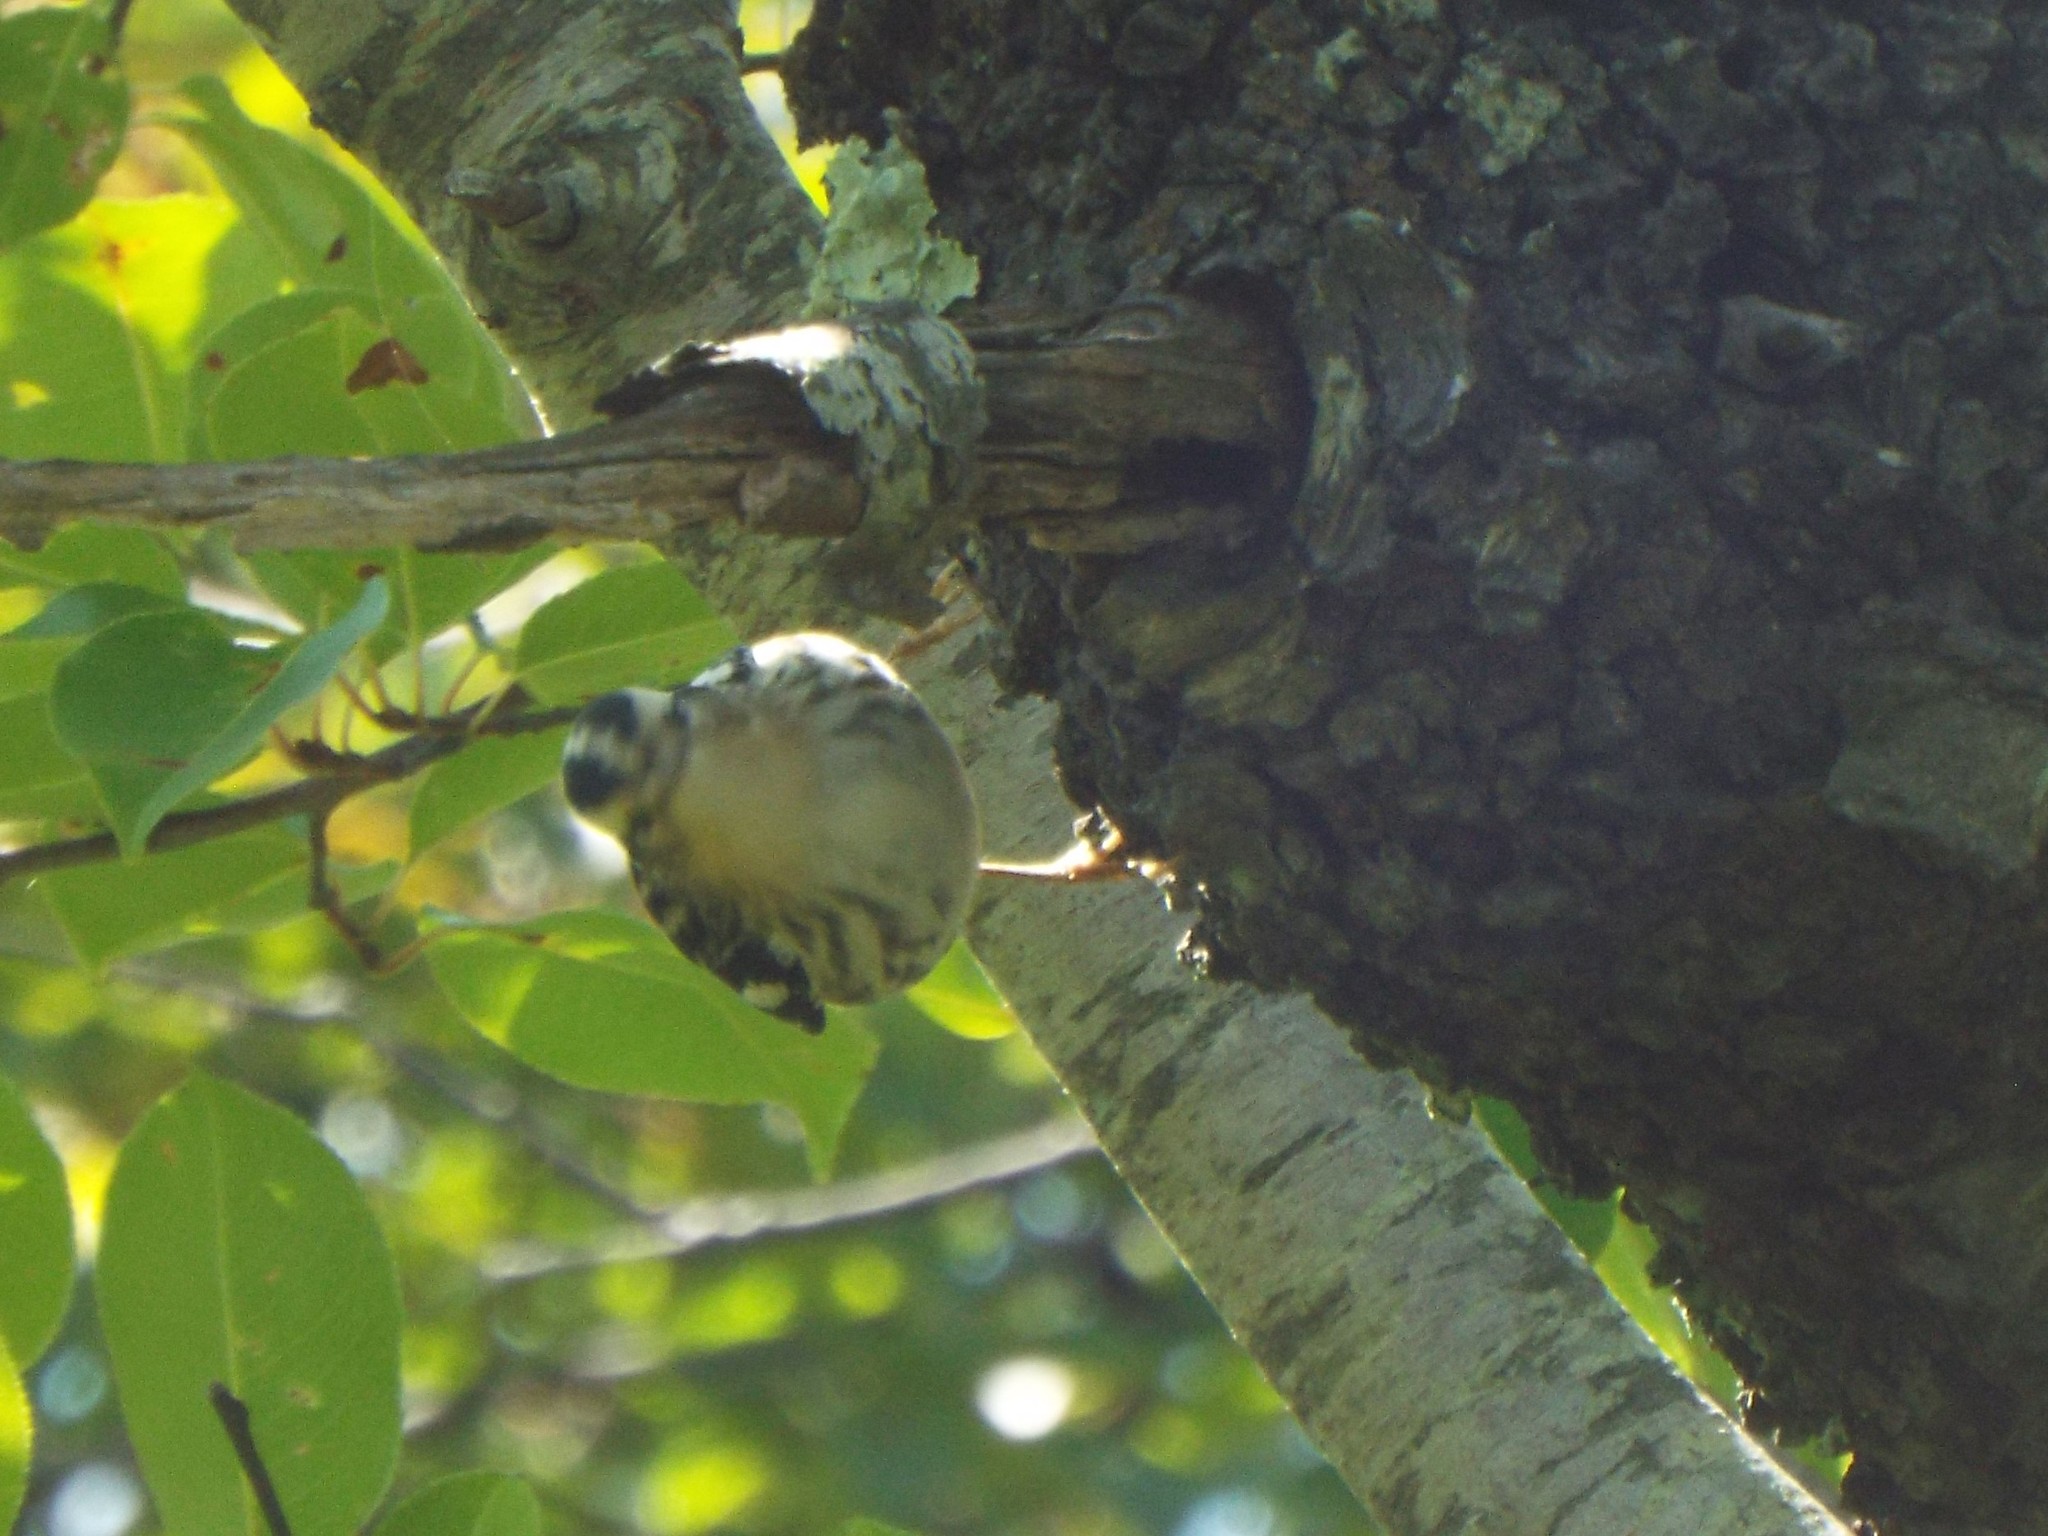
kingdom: Animalia
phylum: Chordata
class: Aves
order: Passeriformes
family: Parulidae
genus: Mniotilta
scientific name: Mniotilta varia
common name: Black-and-white warbler
